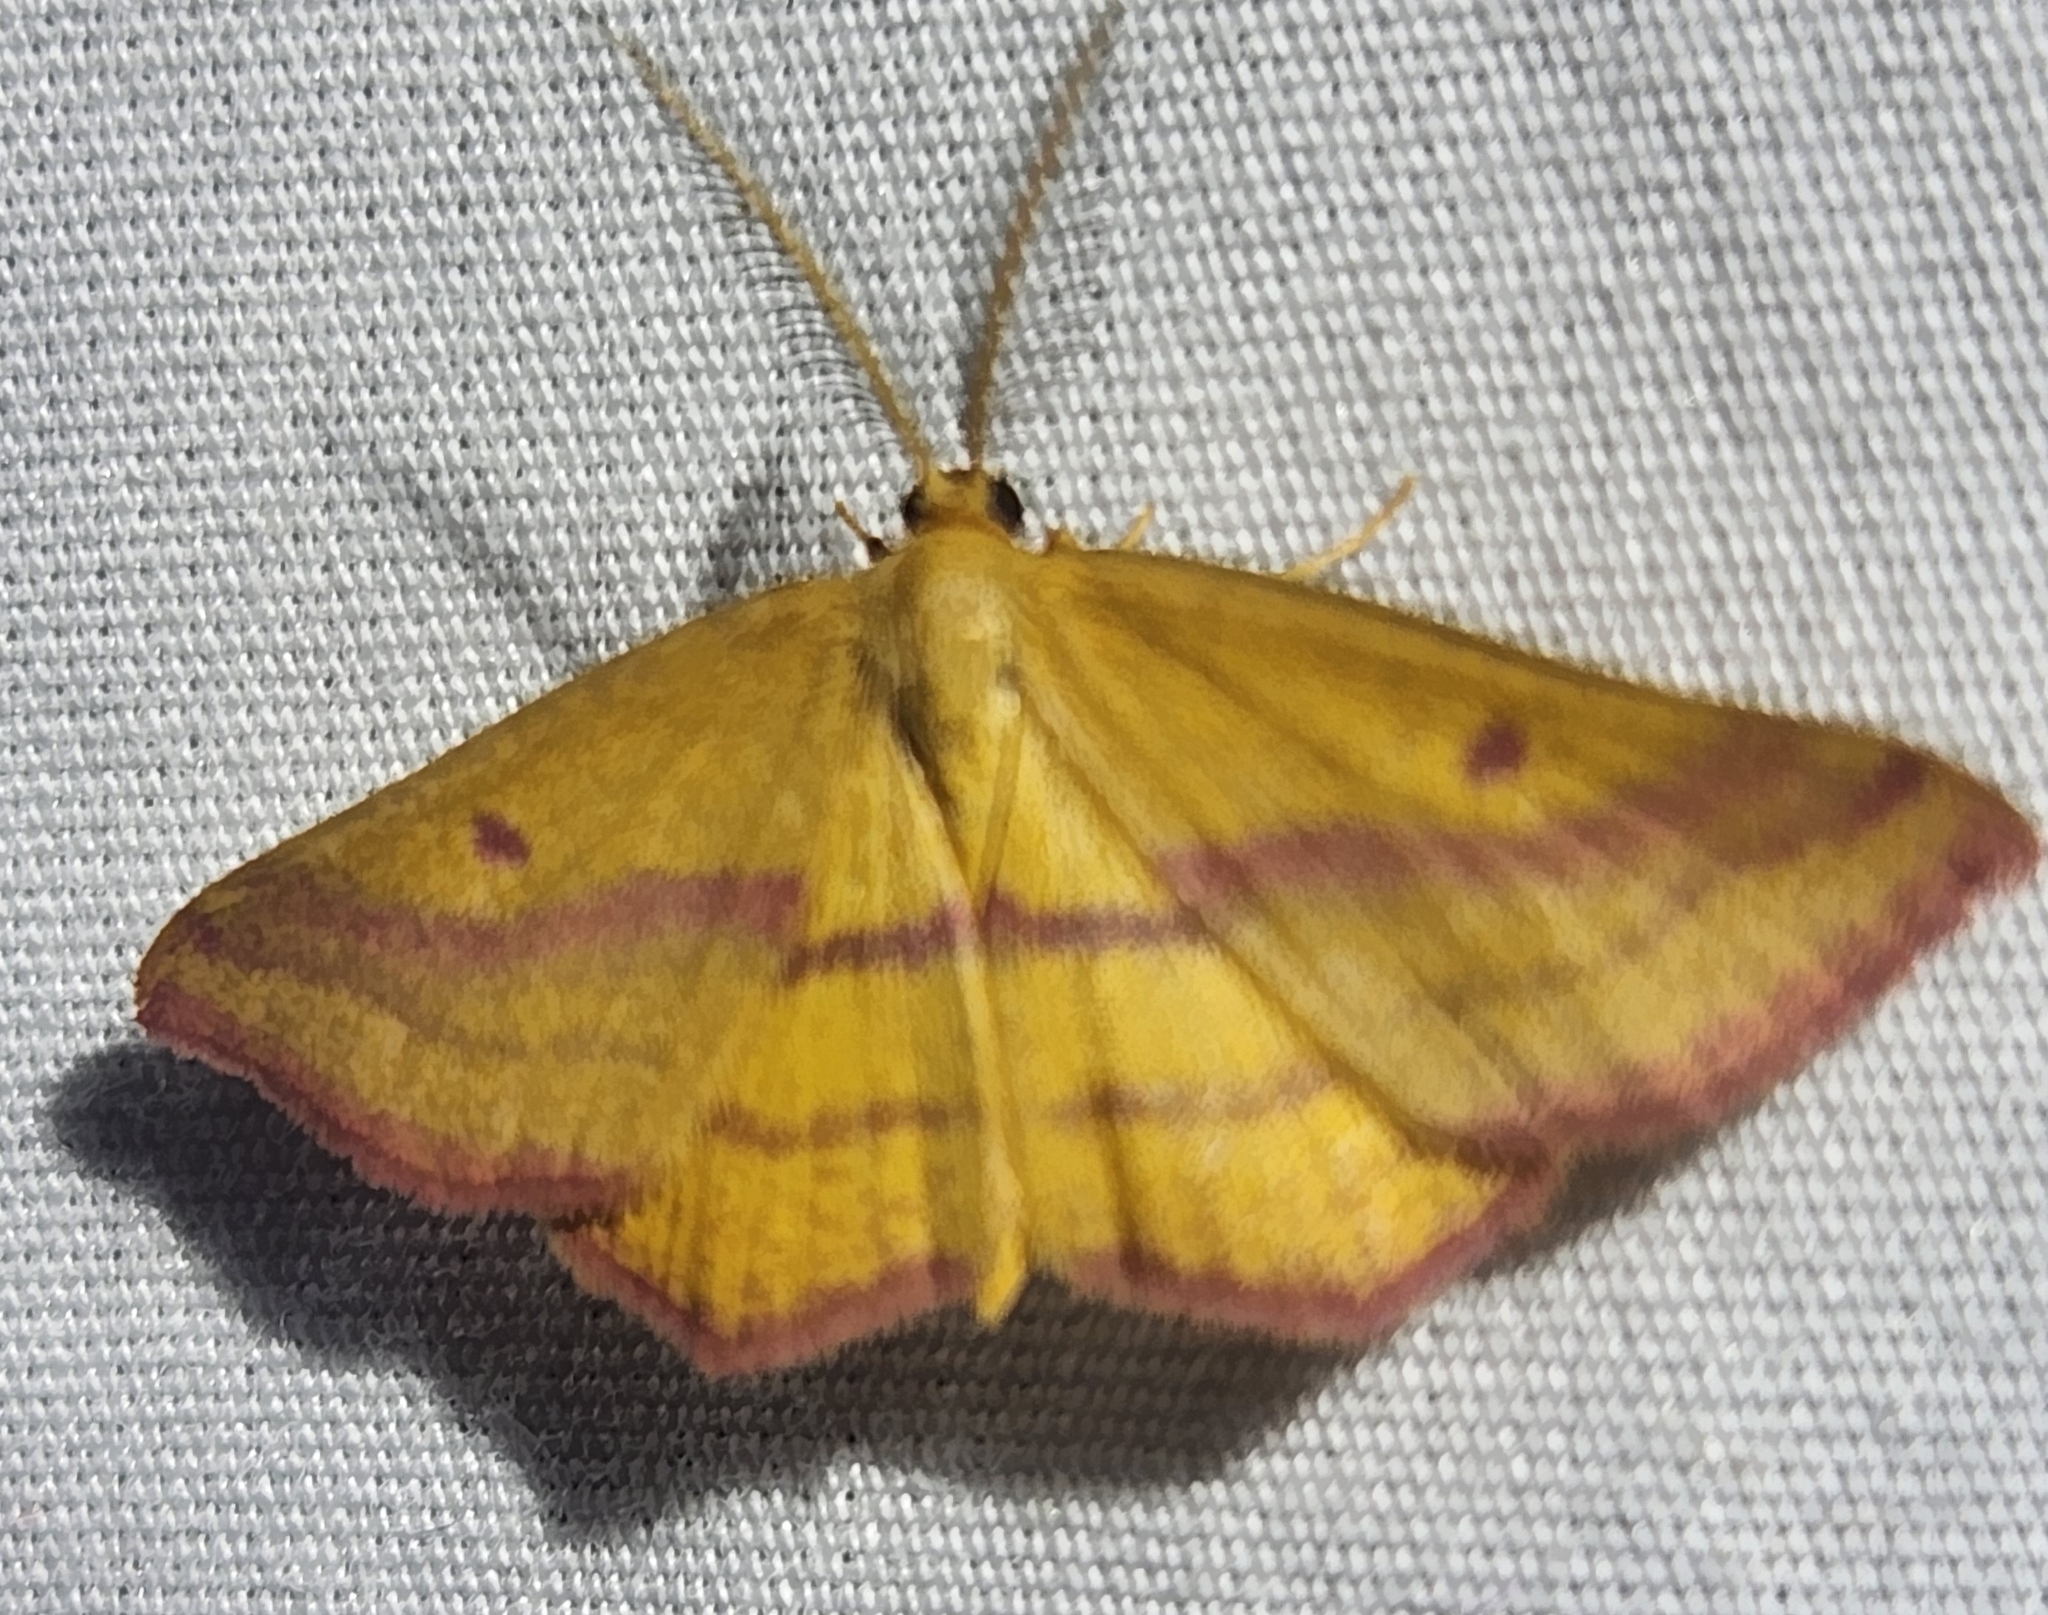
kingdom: Animalia
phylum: Arthropoda
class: Insecta
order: Lepidoptera
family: Geometridae
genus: Haematopis
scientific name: Haematopis grataria
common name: Chickweed geometer
